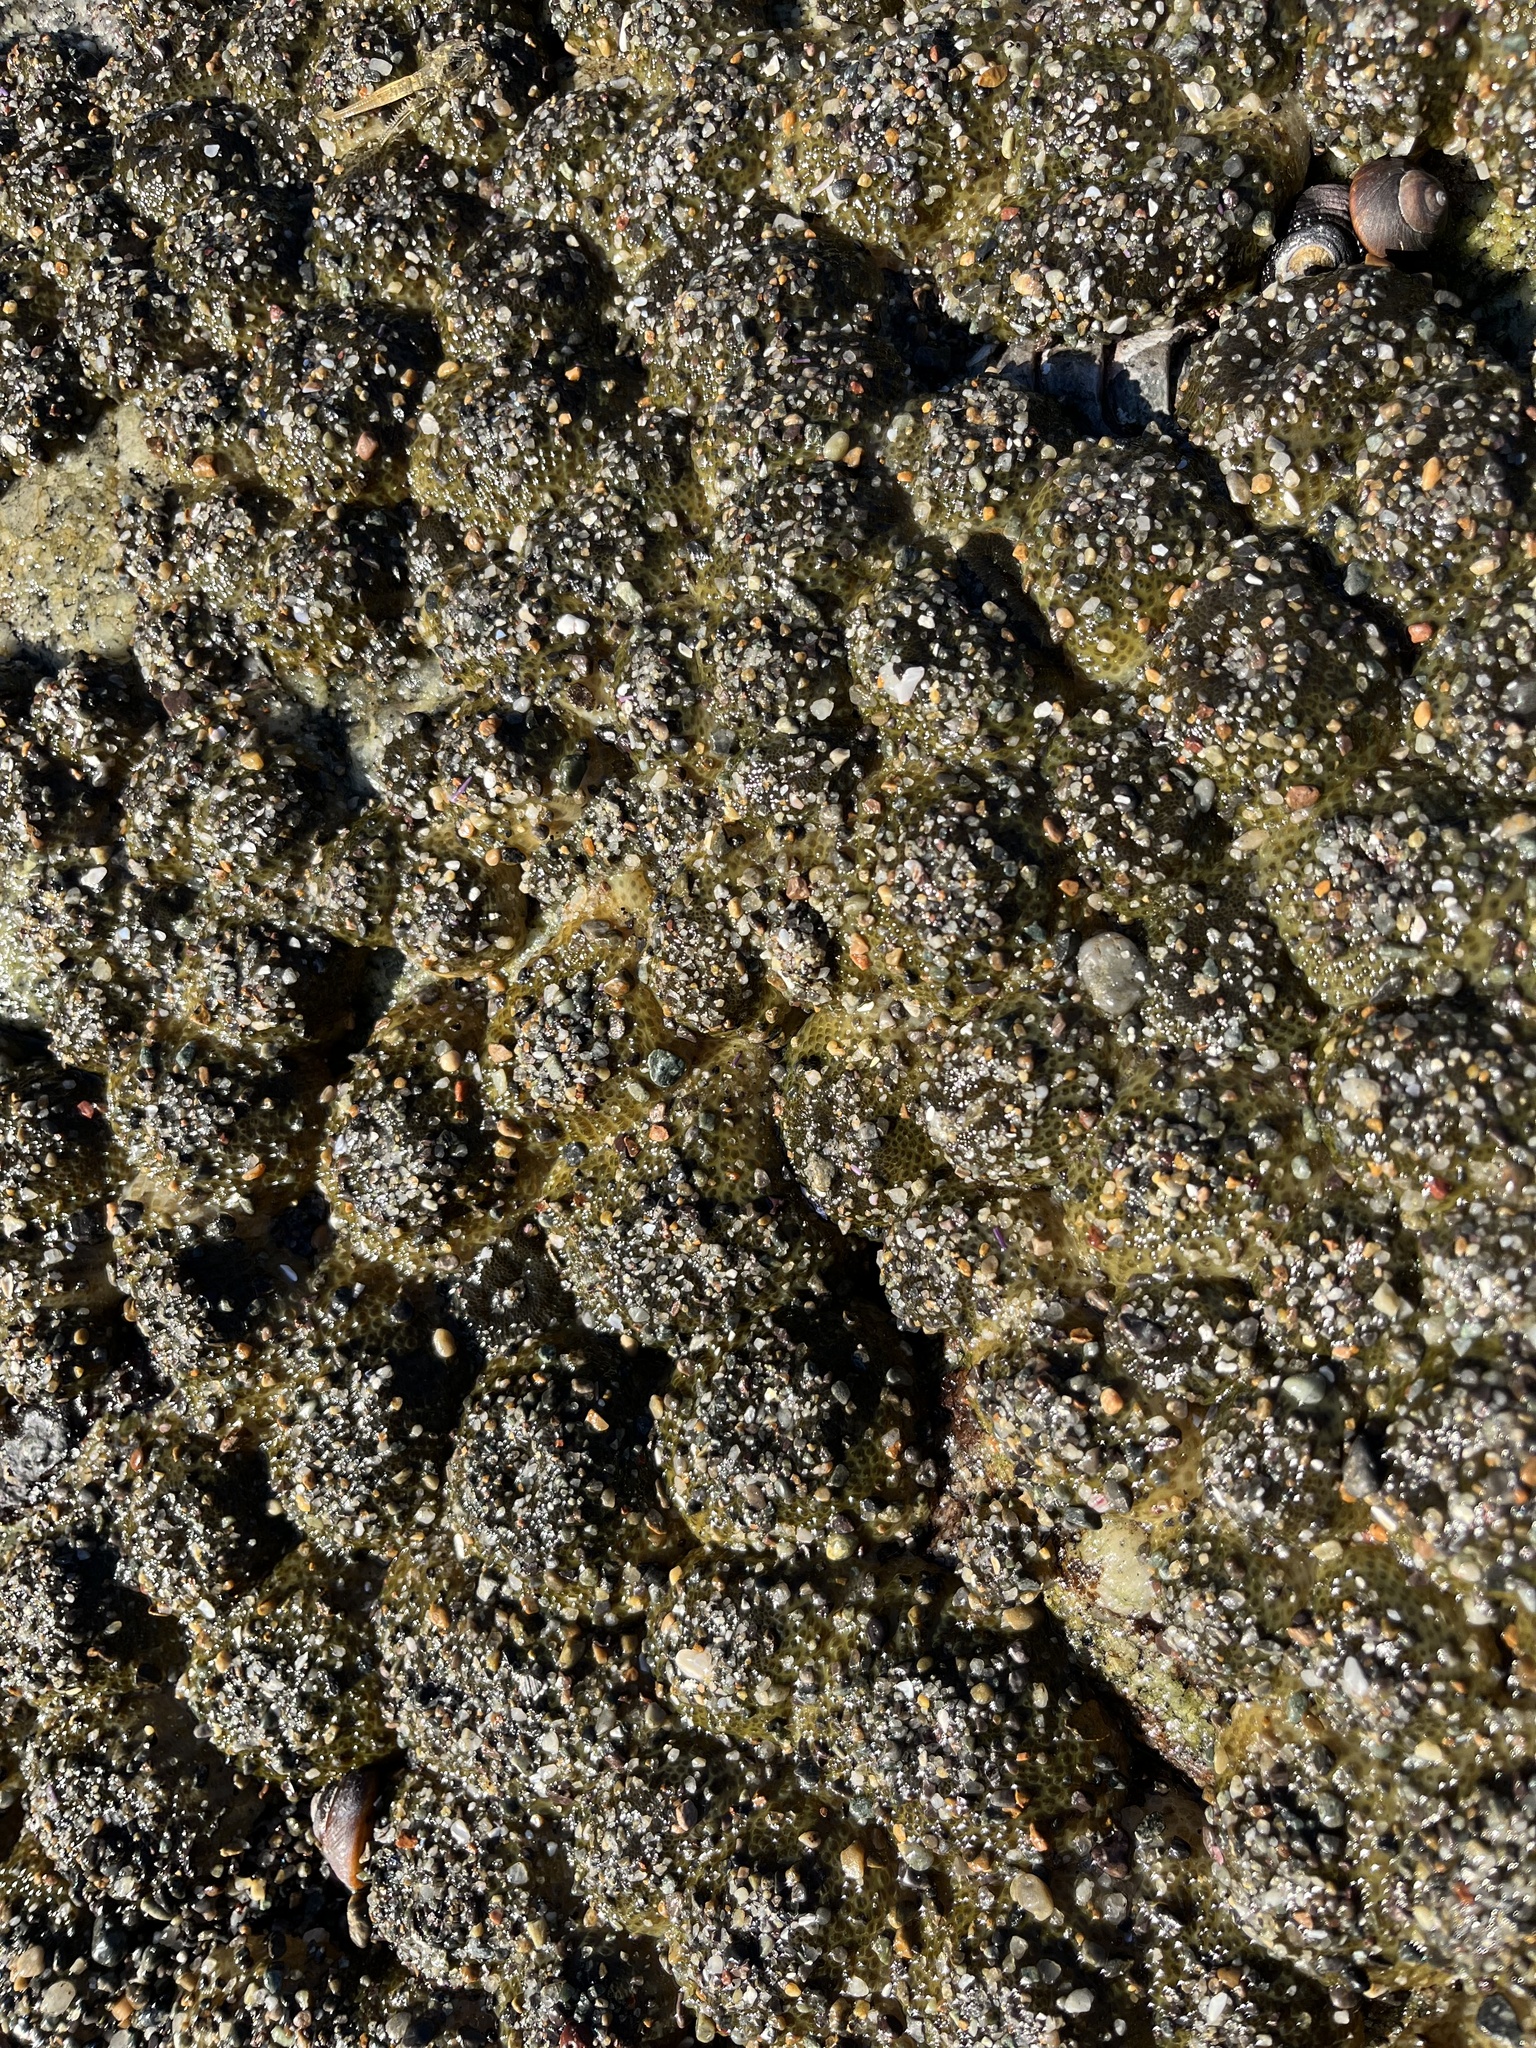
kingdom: Animalia
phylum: Cnidaria
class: Anthozoa
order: Actiniaria
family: Actiniidae
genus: Anthopleura
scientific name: Anthopleura elegantissima
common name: Clonal anemone
